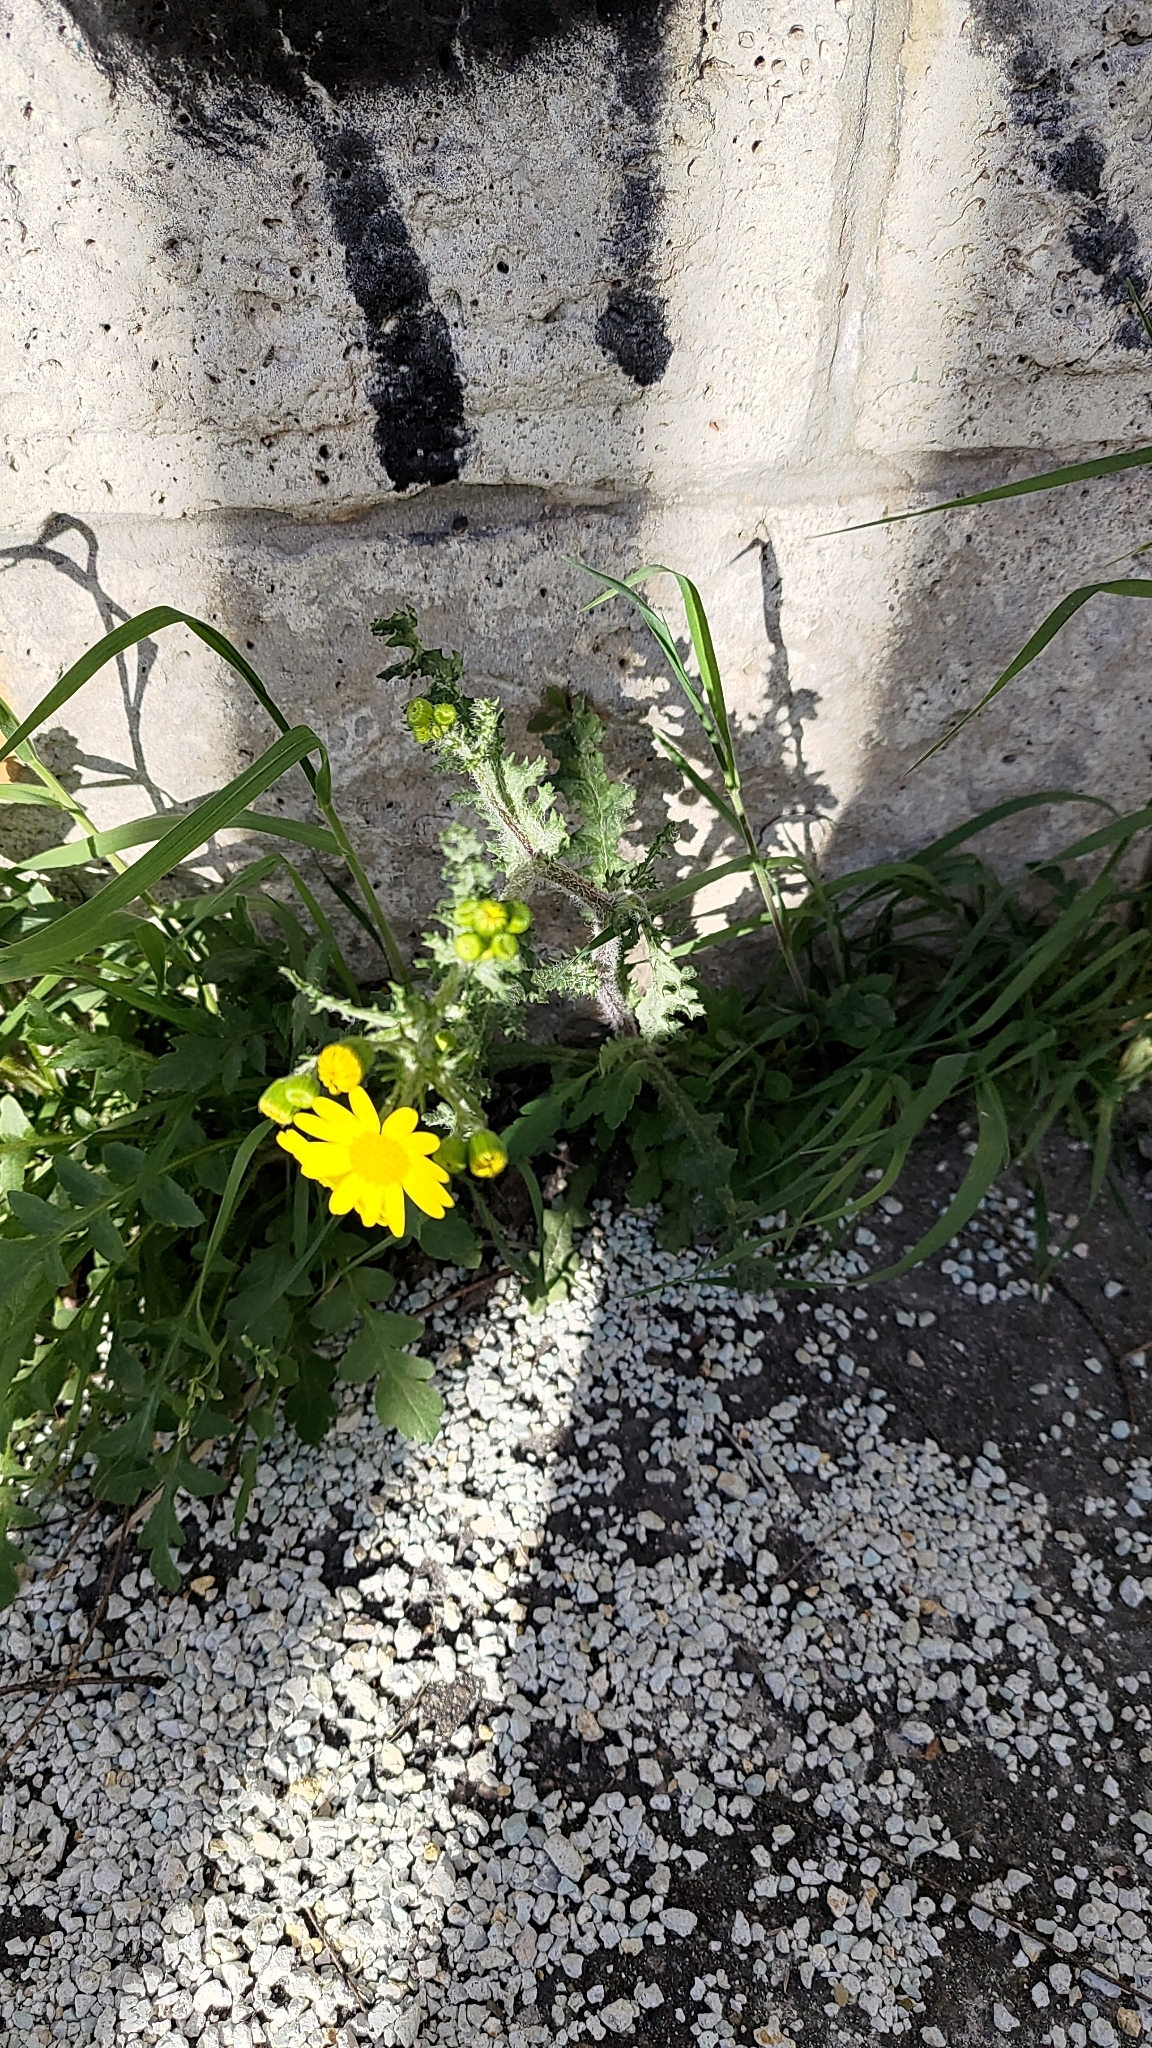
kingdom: Plantae
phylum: Tracheophyta
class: Magnoliopsida
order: Asterales
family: Asteraceae
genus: Senecio
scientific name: Senecio vernalis
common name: Eastern groundsel
